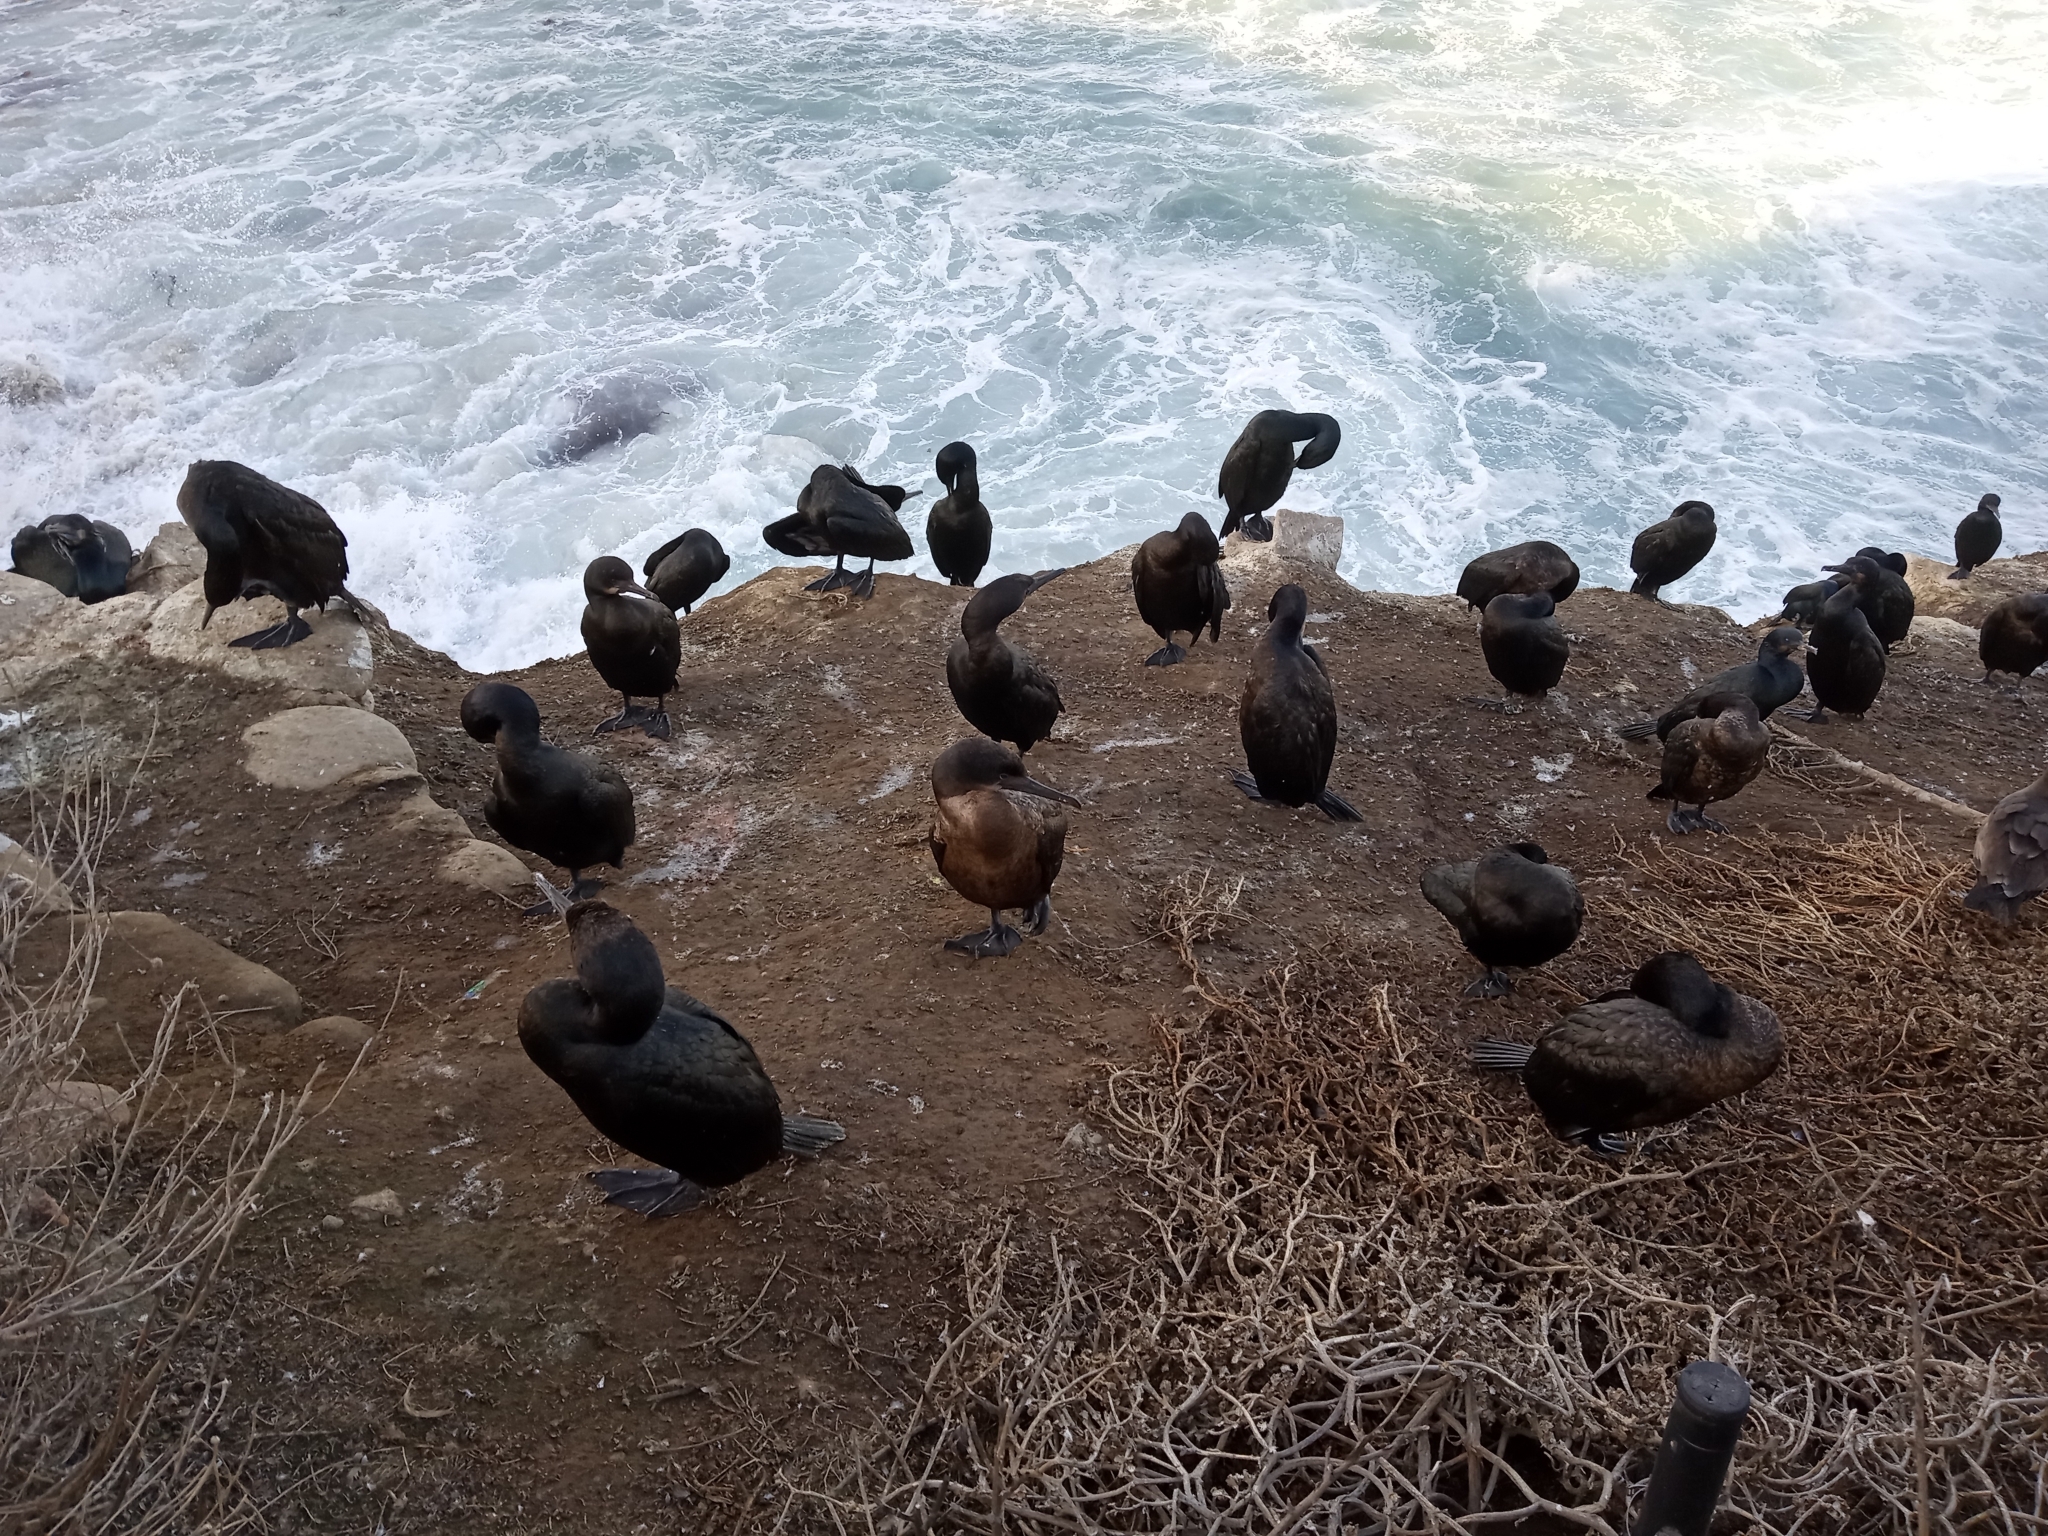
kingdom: Animalia
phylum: Chordata
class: Aves
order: Suliformes
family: Phalacrocoracidae
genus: Urile
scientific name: Urile penicillatus
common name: Brandt's cormorant
